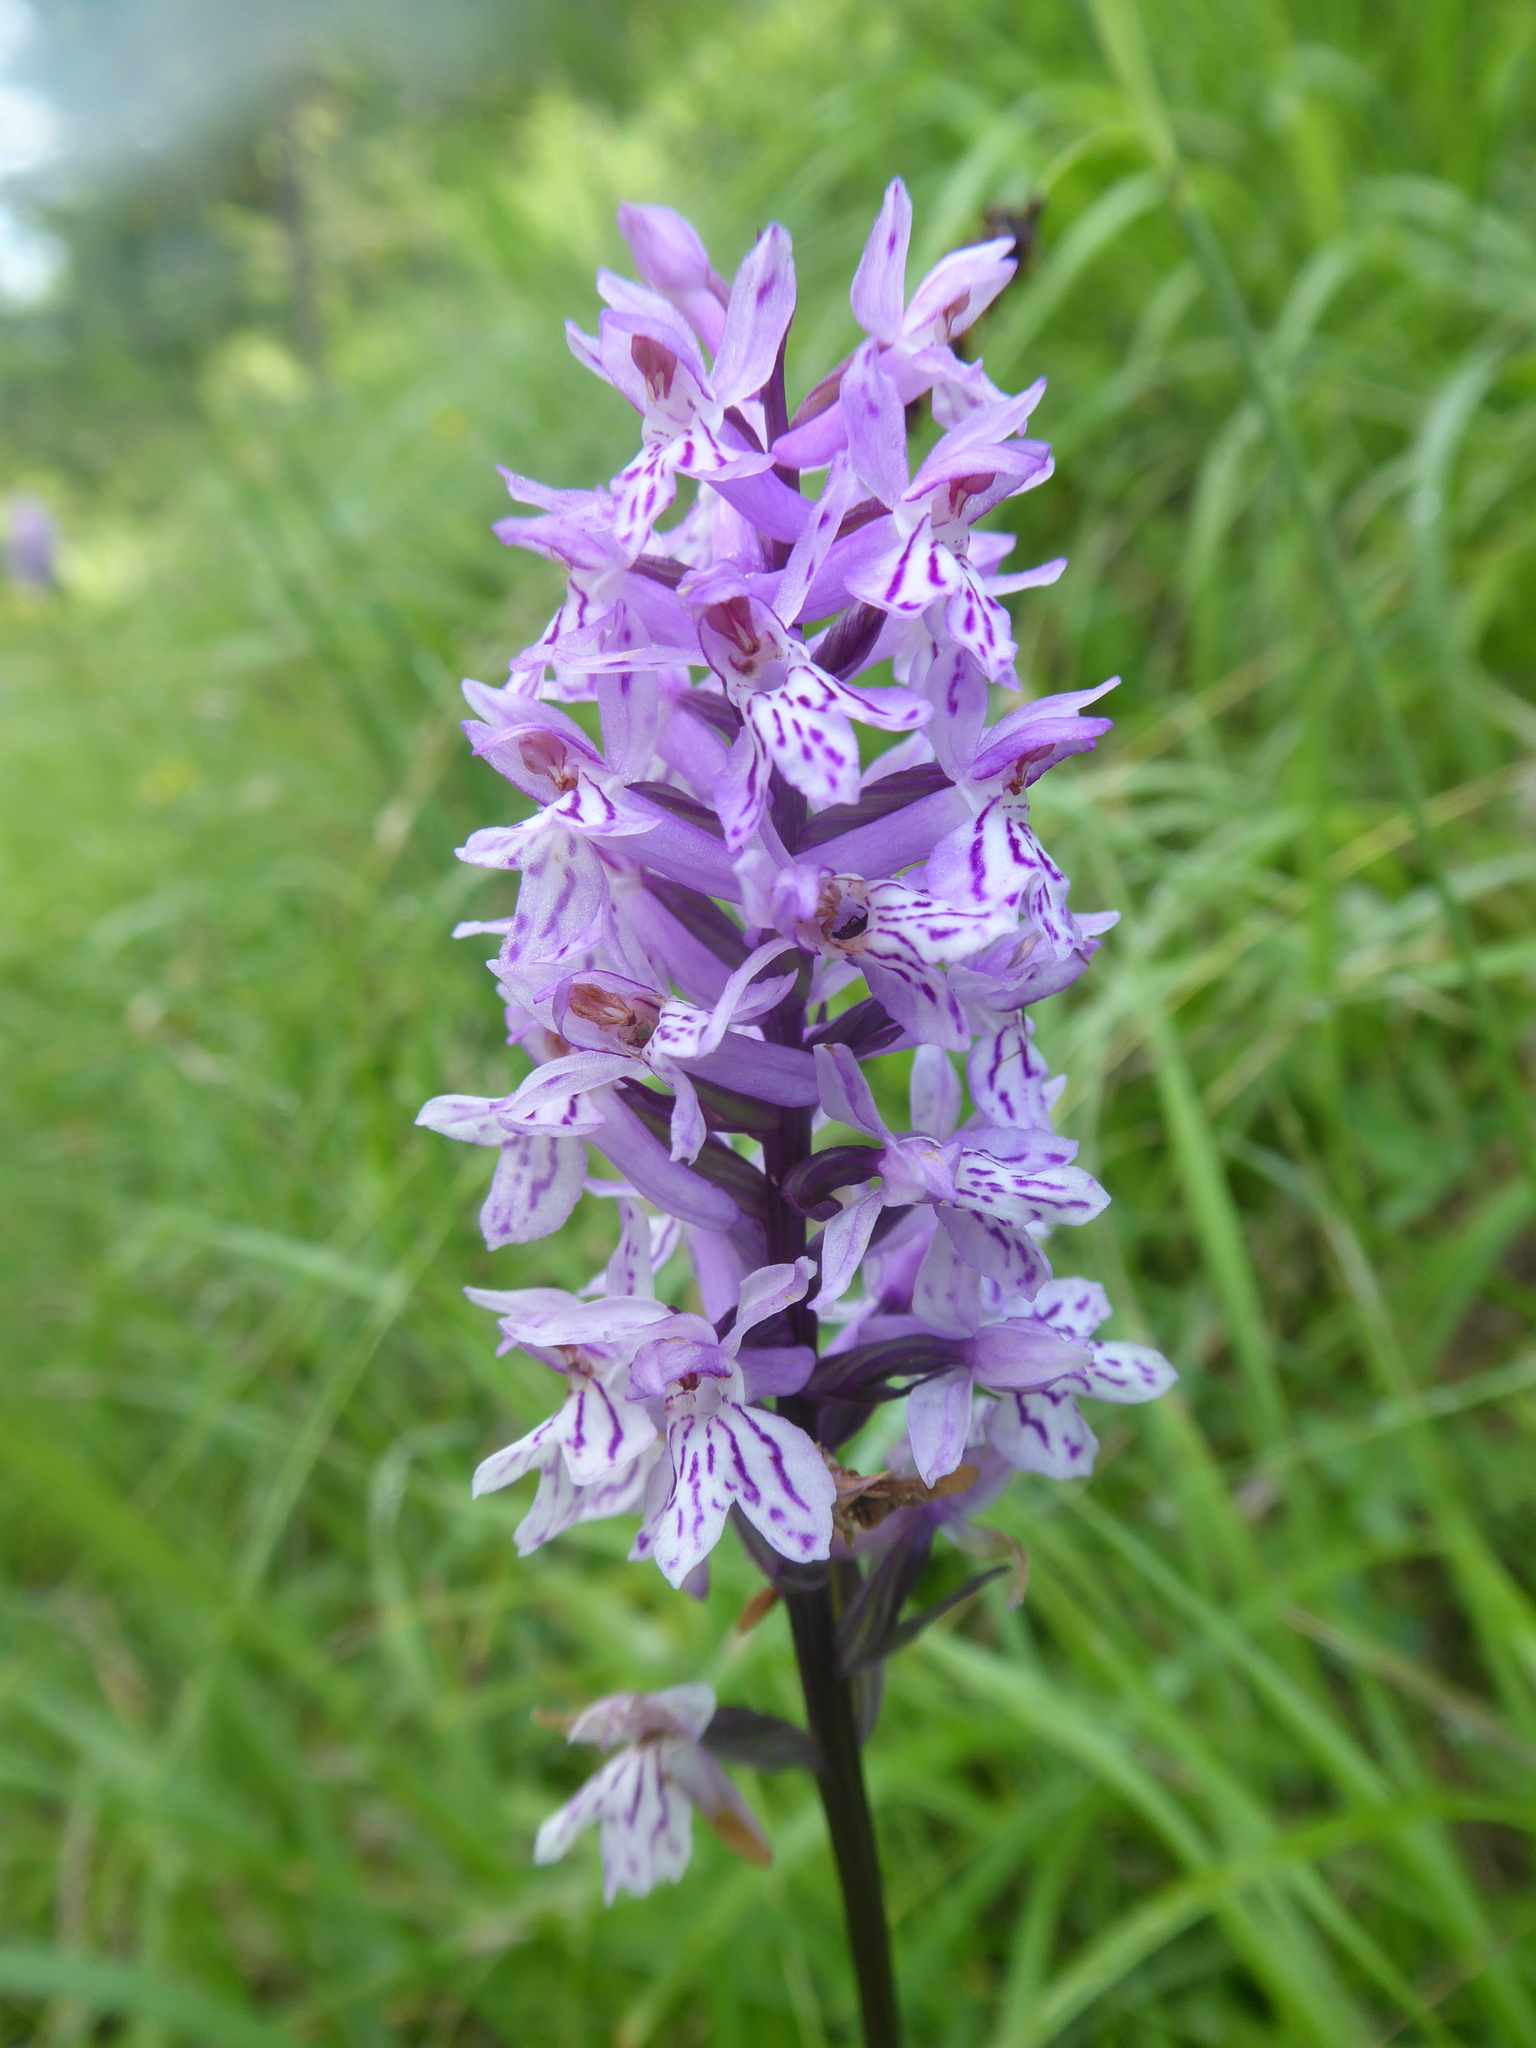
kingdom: Plantae
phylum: Tracheophyta
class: Liliopsida
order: Asparagales
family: Orchidaceae
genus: Dactylorhiza
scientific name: Dactylorhiza maculata
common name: Heath spotted-orchid
